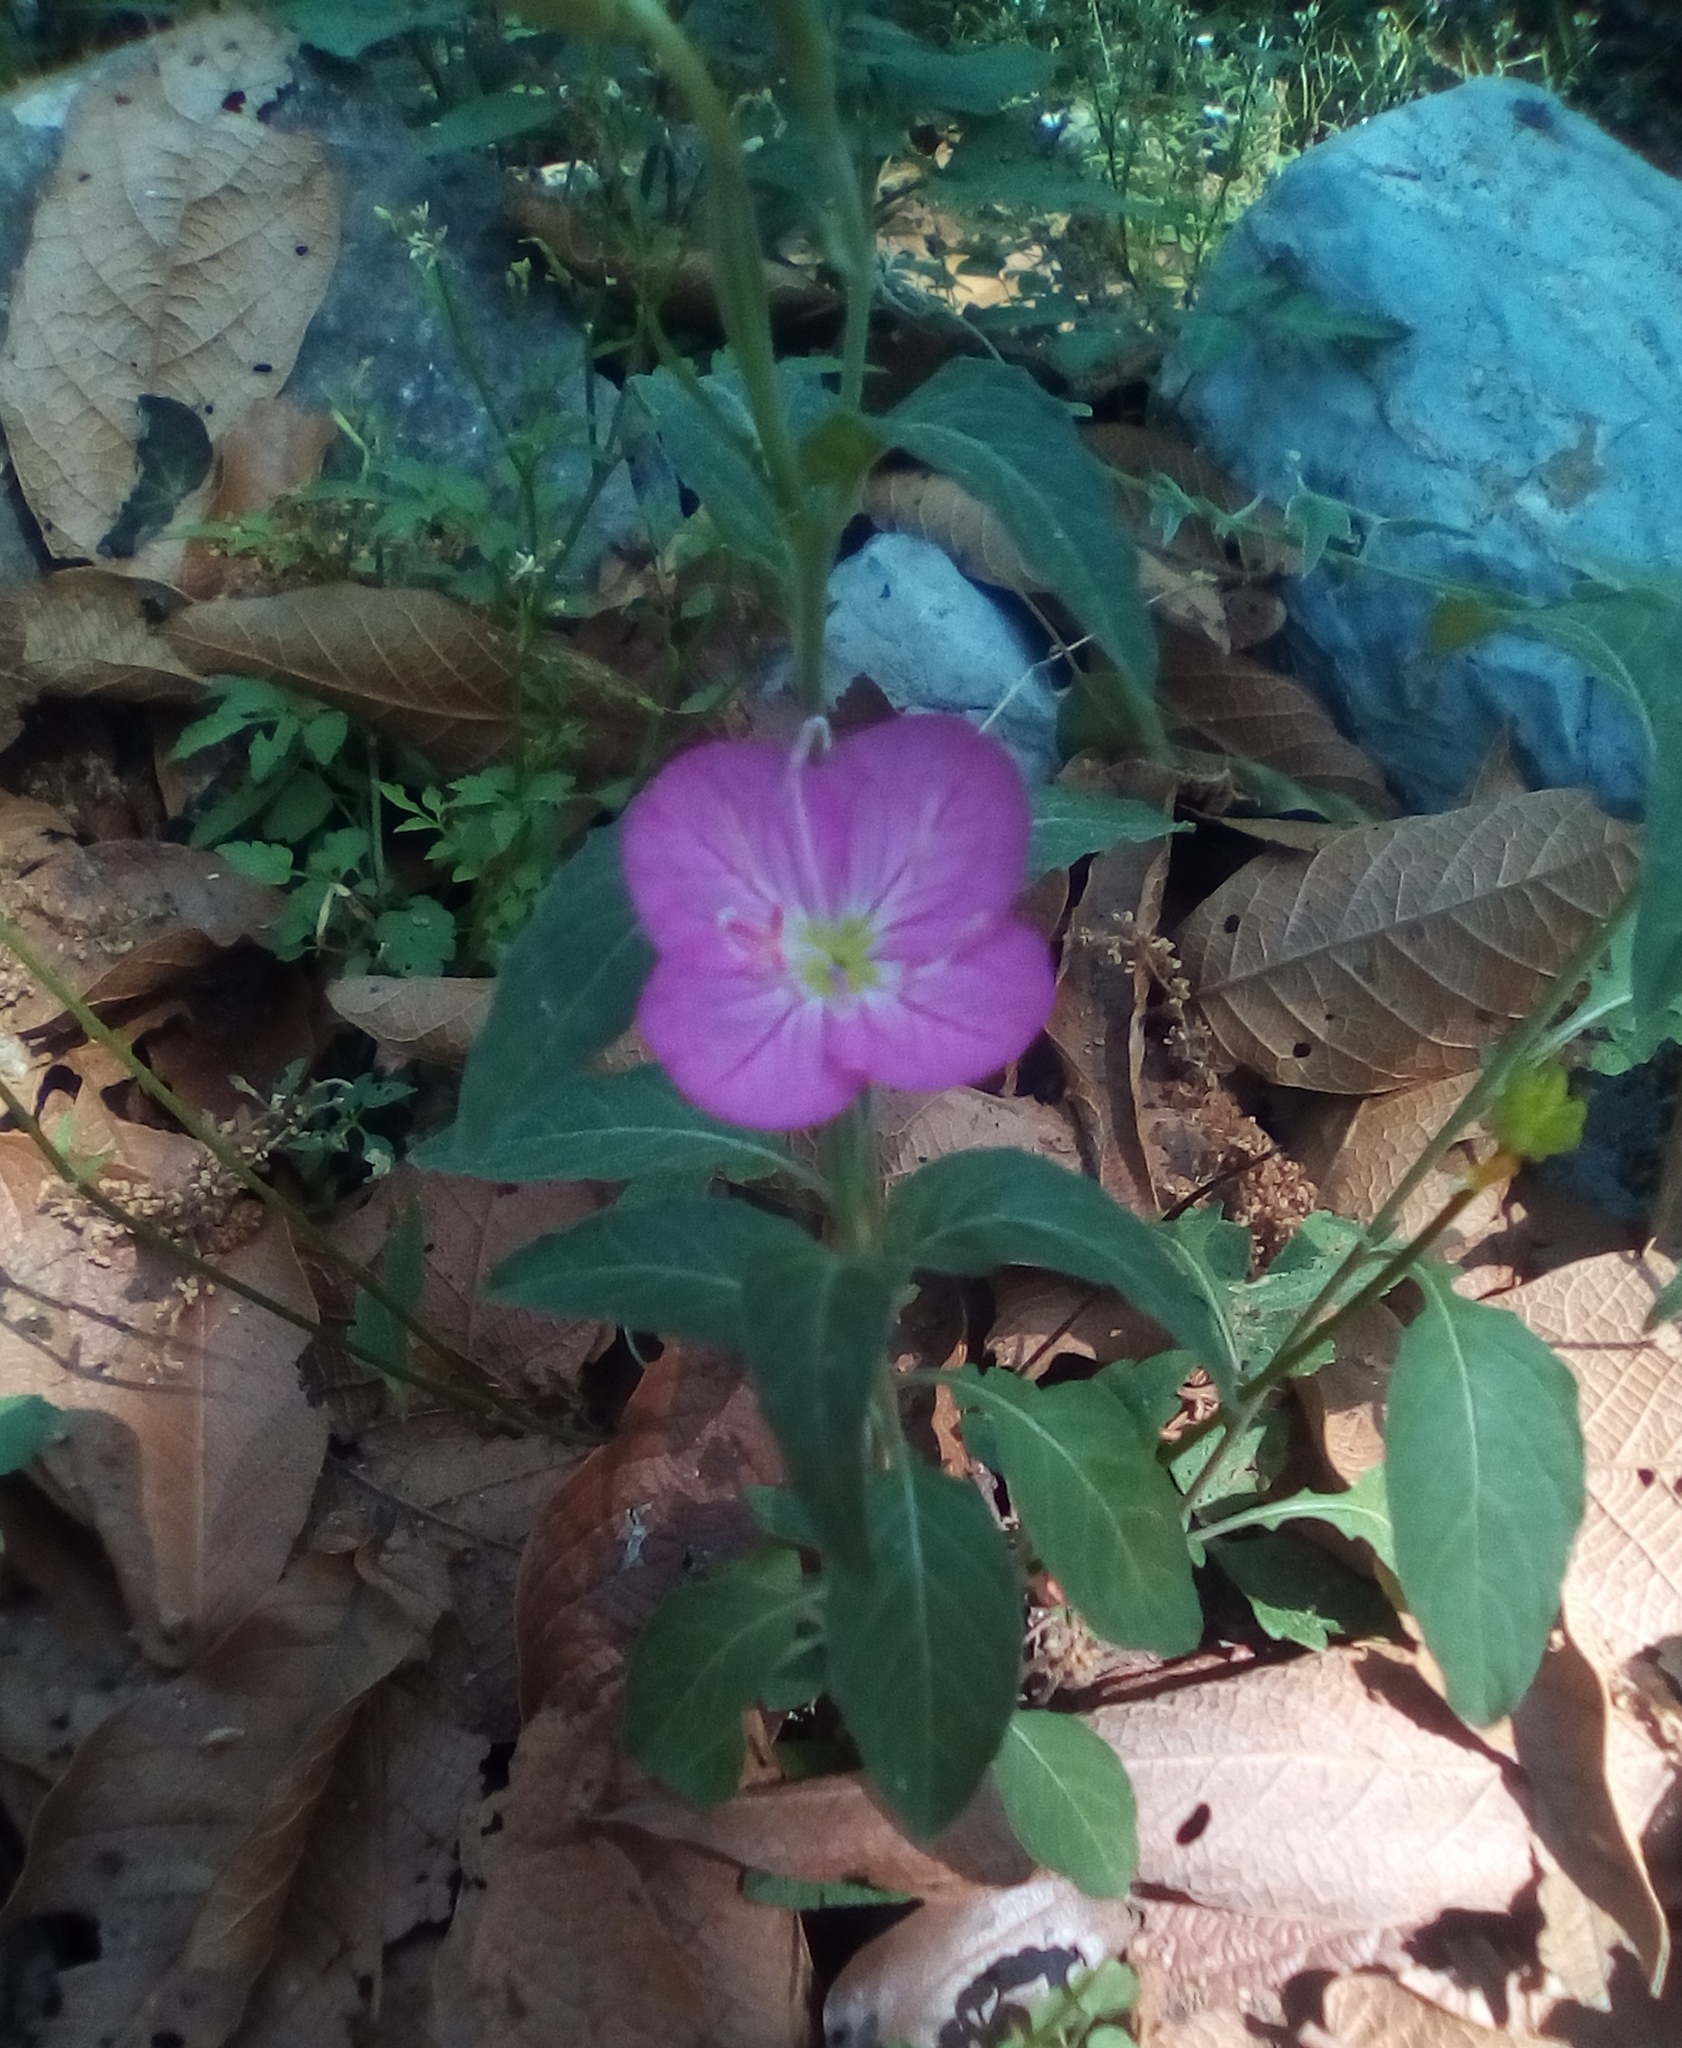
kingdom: Plantae
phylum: Tracheophyta
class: Magnoliopsida
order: Myrtales
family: Onagraceae
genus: Oenothera
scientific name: Oenothera rosea
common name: Rosy evening-primrose
